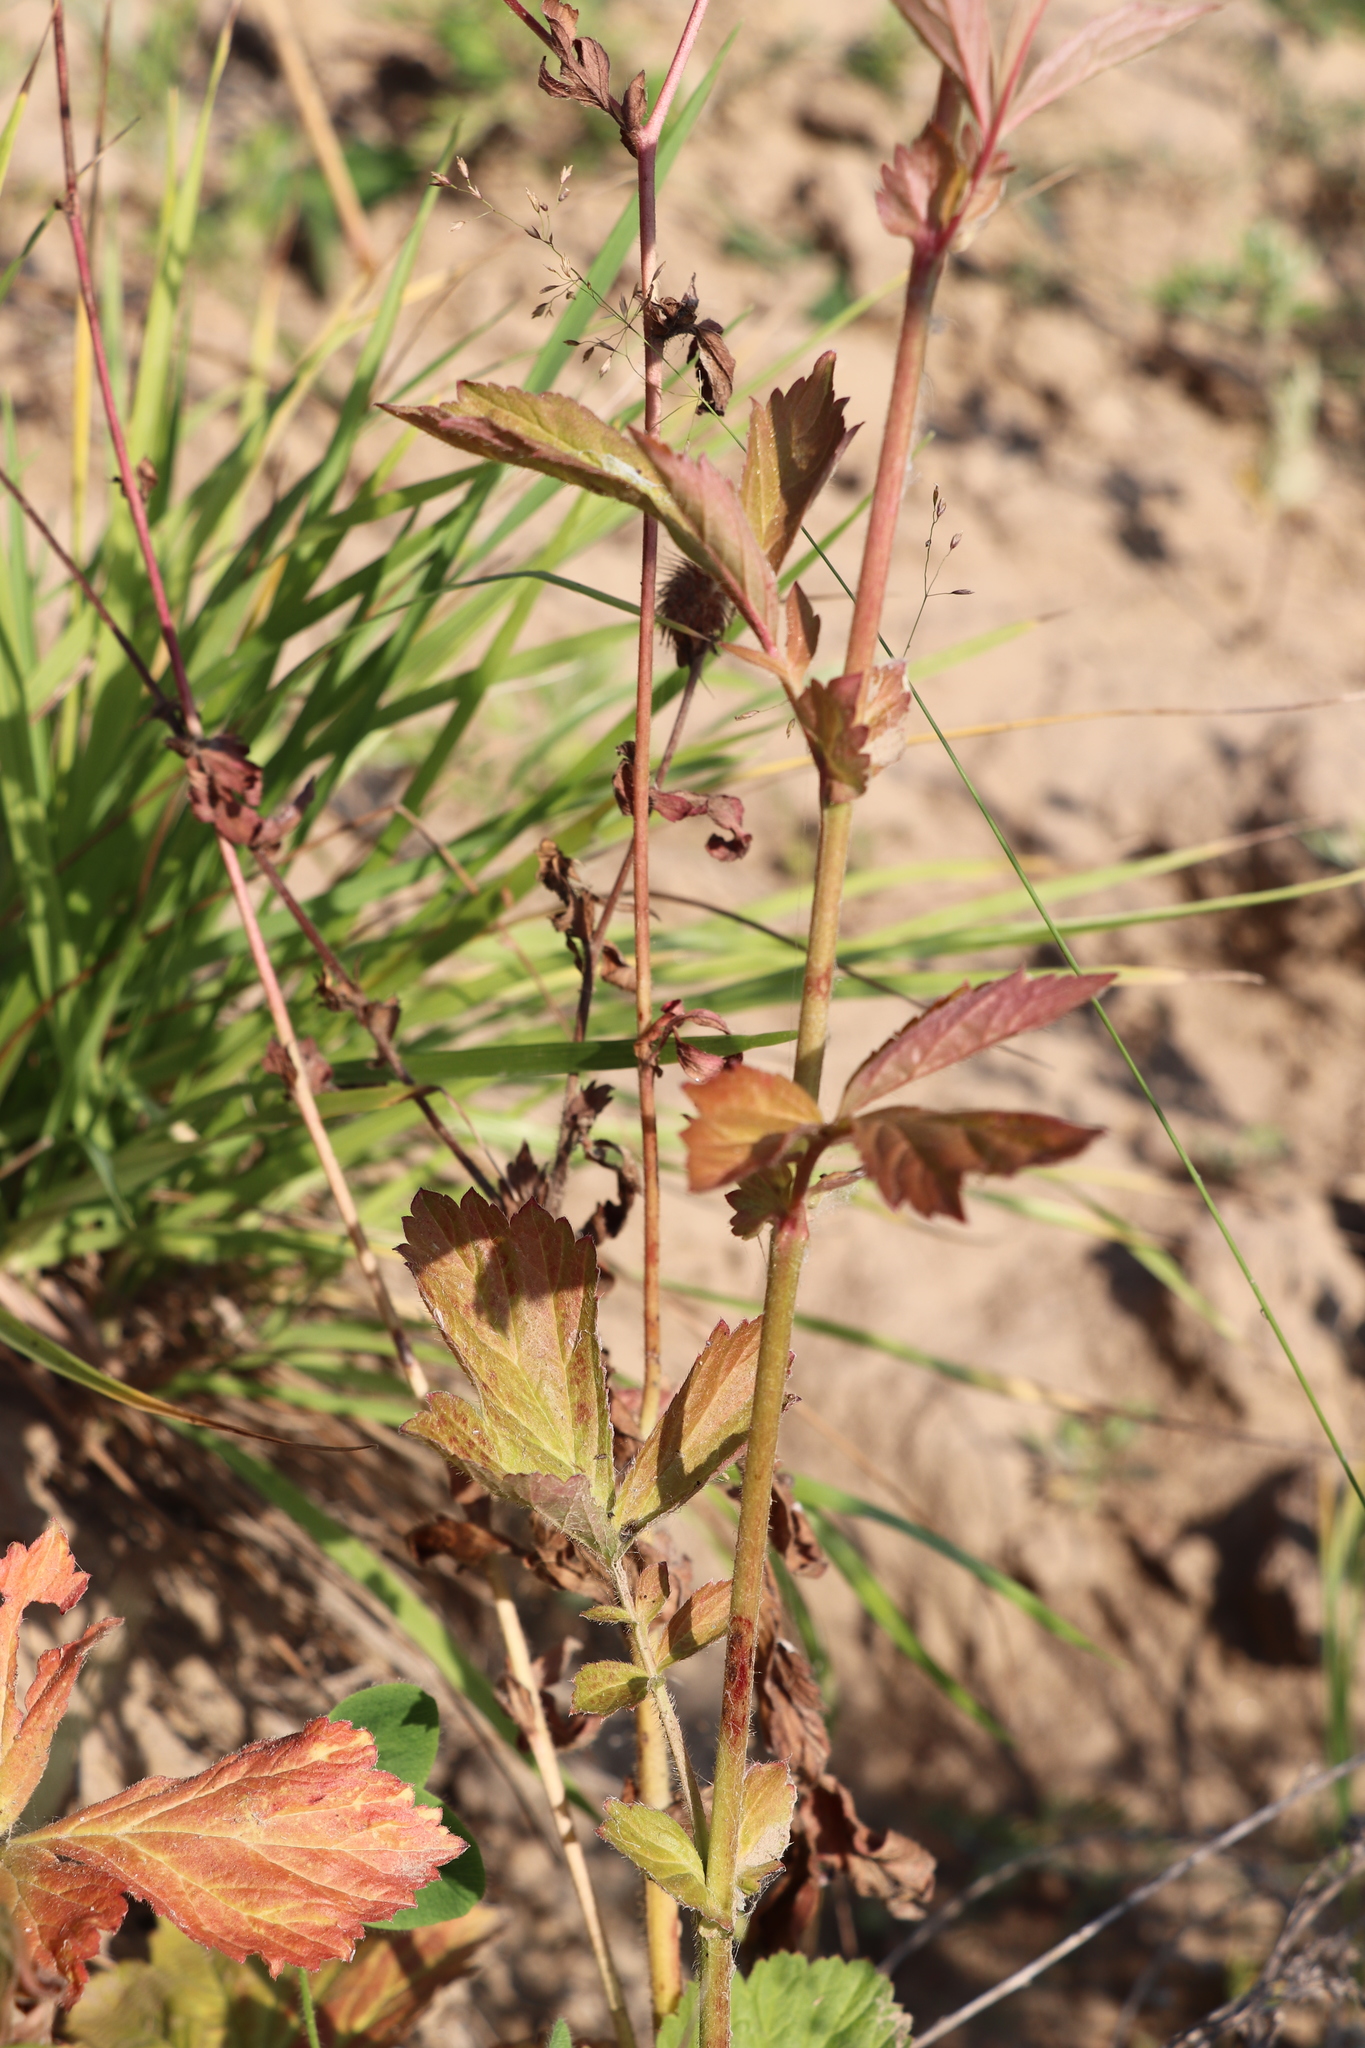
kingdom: Plantae
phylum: Tracheophyta
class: Magnoliopsida
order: Rosales
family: Rosaceae
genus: Geum
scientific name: Geum aleppicum
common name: Yellow avens
